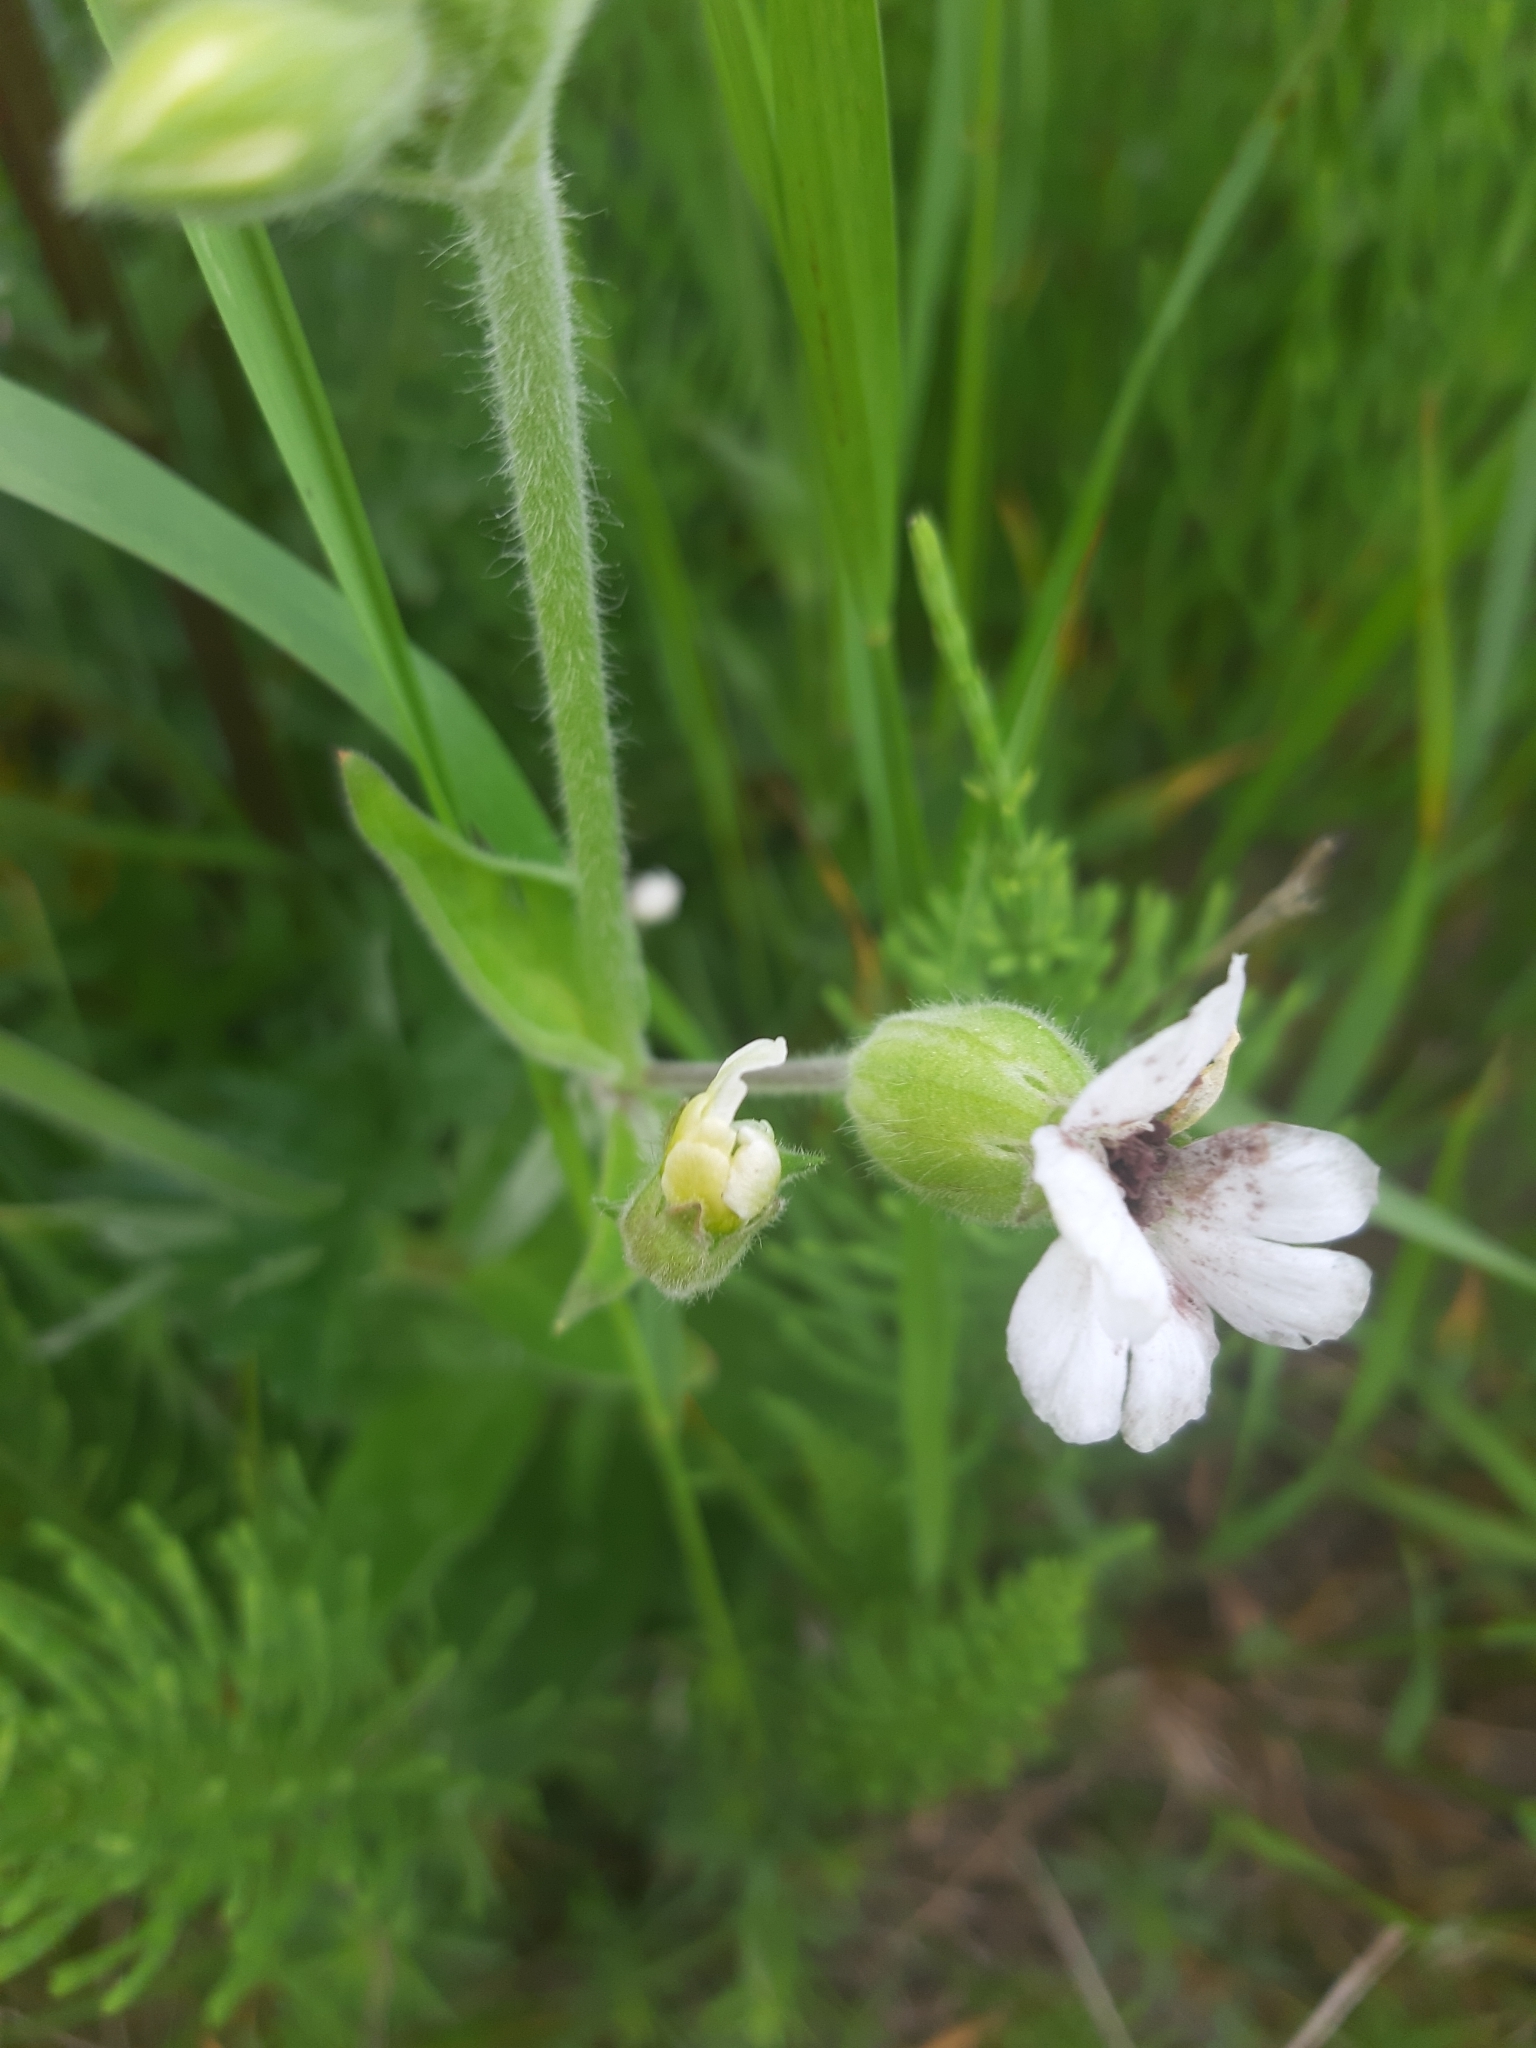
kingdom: Plantae
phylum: Tracheophyta
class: Magnoliopsida
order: Caryophyllales
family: Caryophyllaceae
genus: Silene
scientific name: Silene latifolia
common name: White campion
